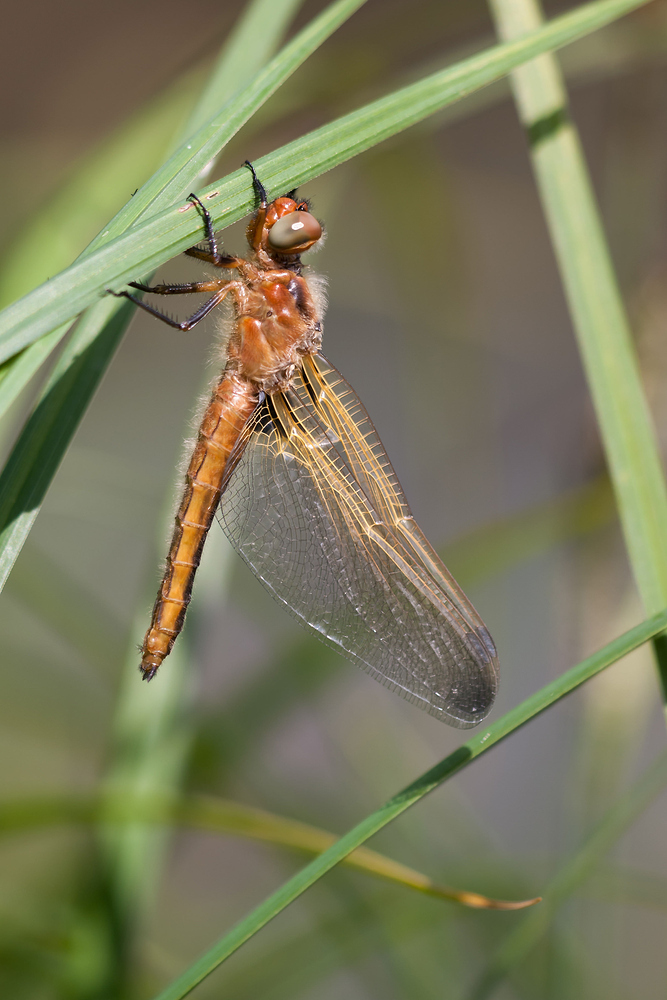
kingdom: Animalia
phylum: Arthropoda
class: Insecta
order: Odonata
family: Libellulidae
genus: Libellula
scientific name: Libellula fulva
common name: Blue chaser
